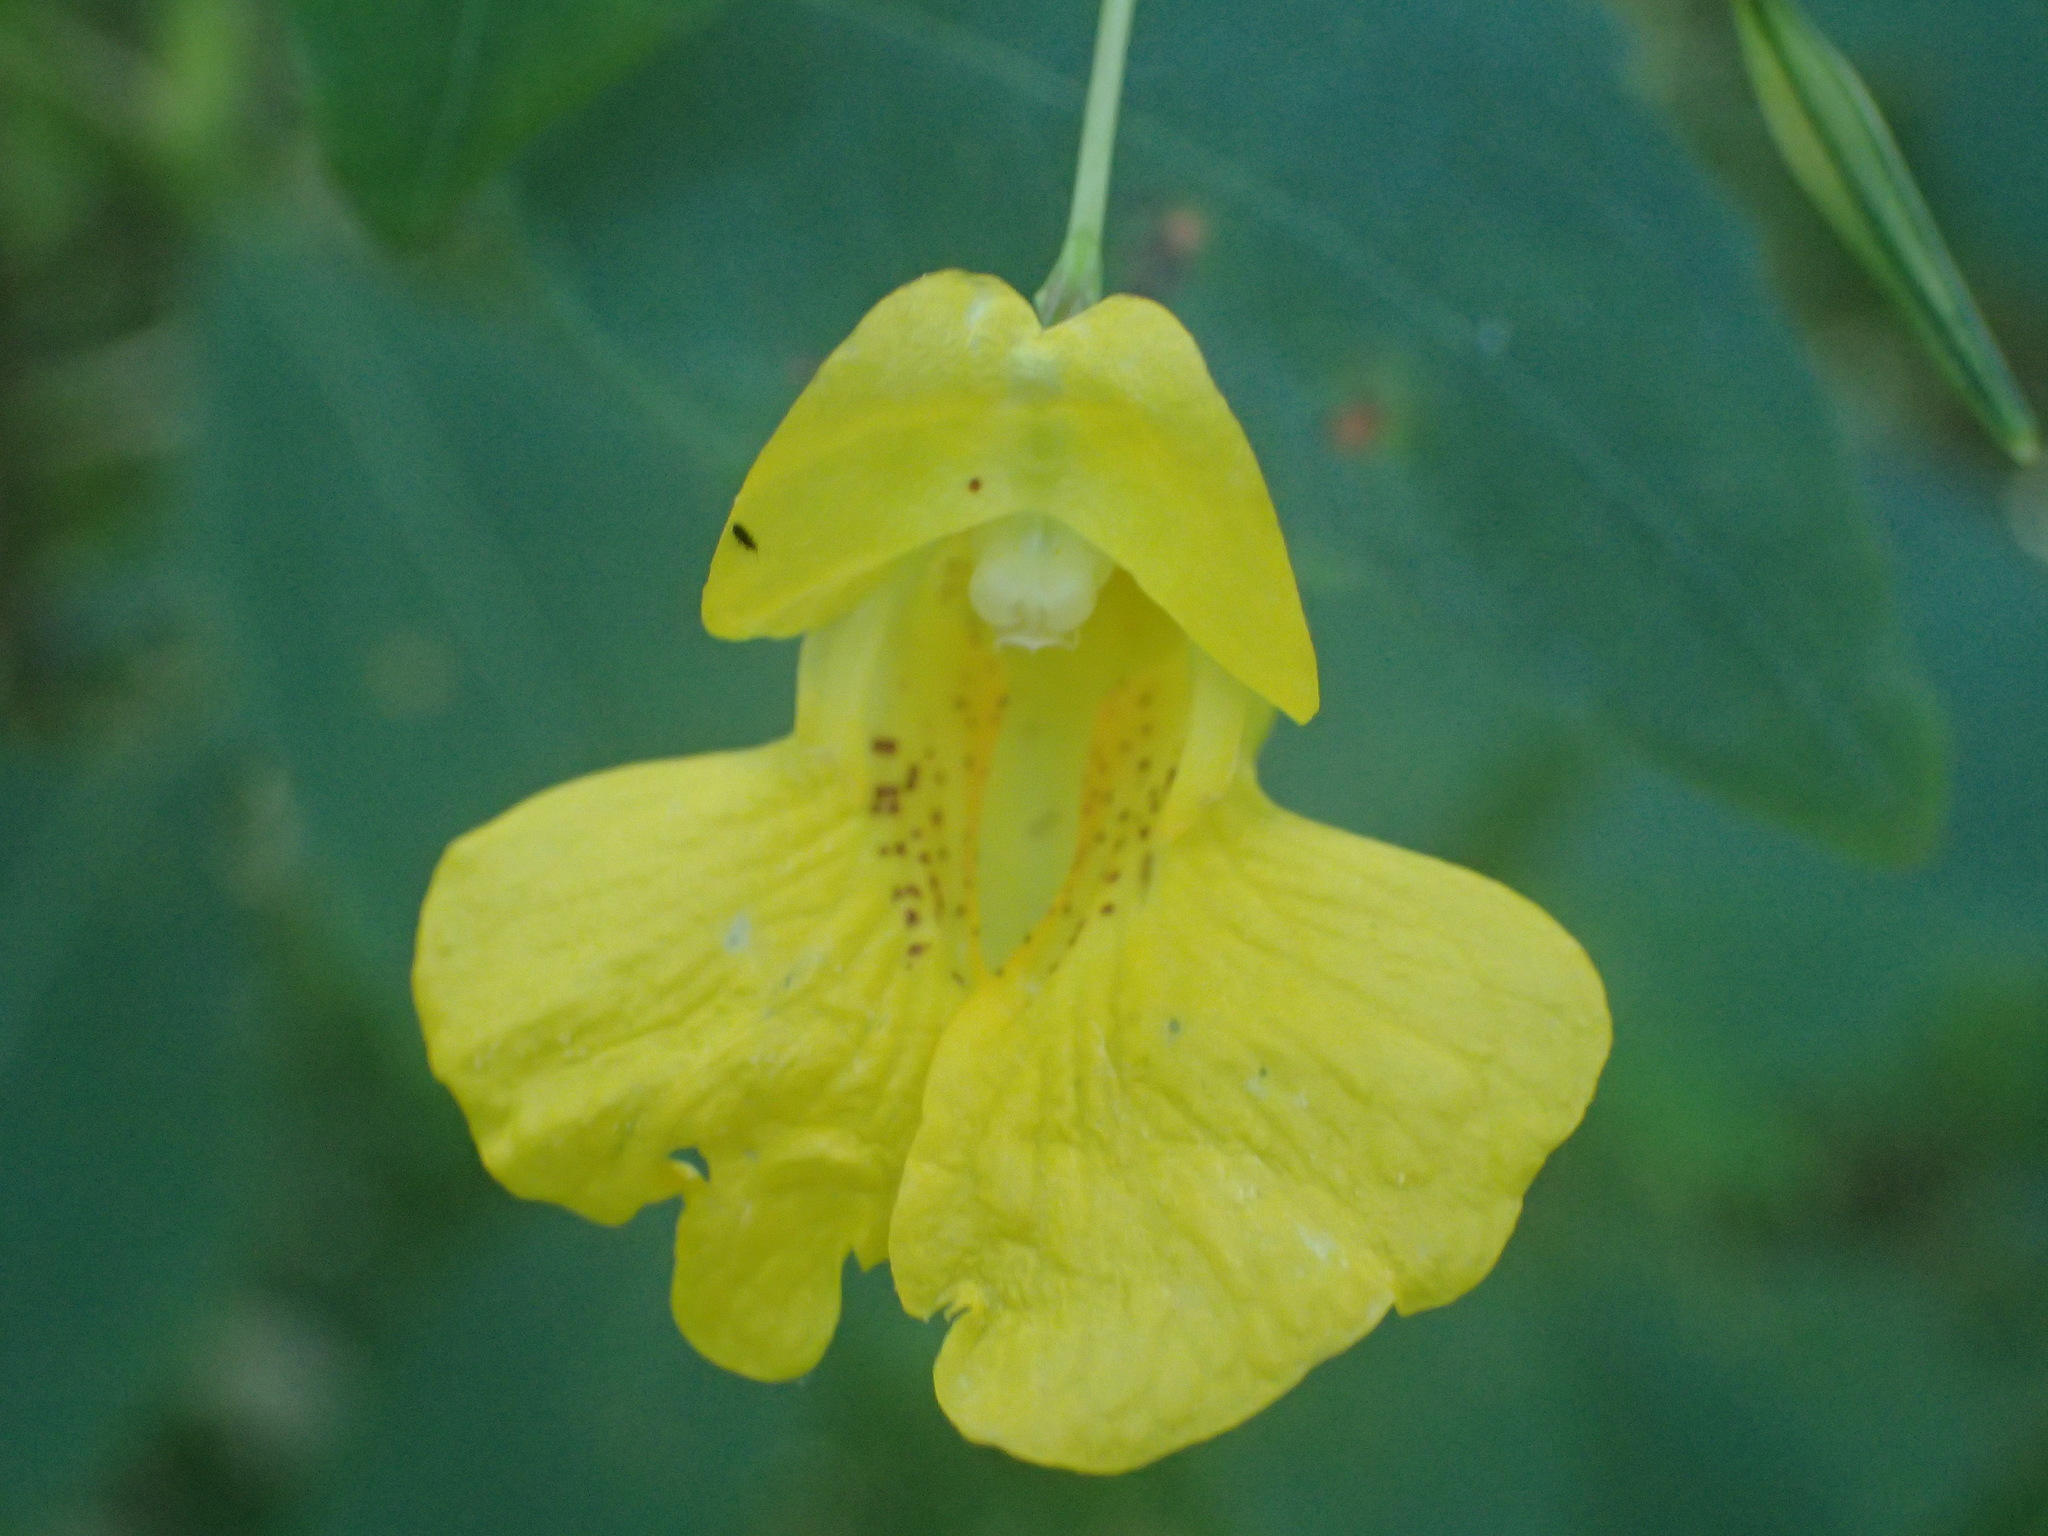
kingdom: Plantae
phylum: Tracheophyta
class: Magnoliopsida
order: Ericales
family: Balsaminaceae
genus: Impatiens
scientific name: Impatiens pallida
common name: Pale snapweed
